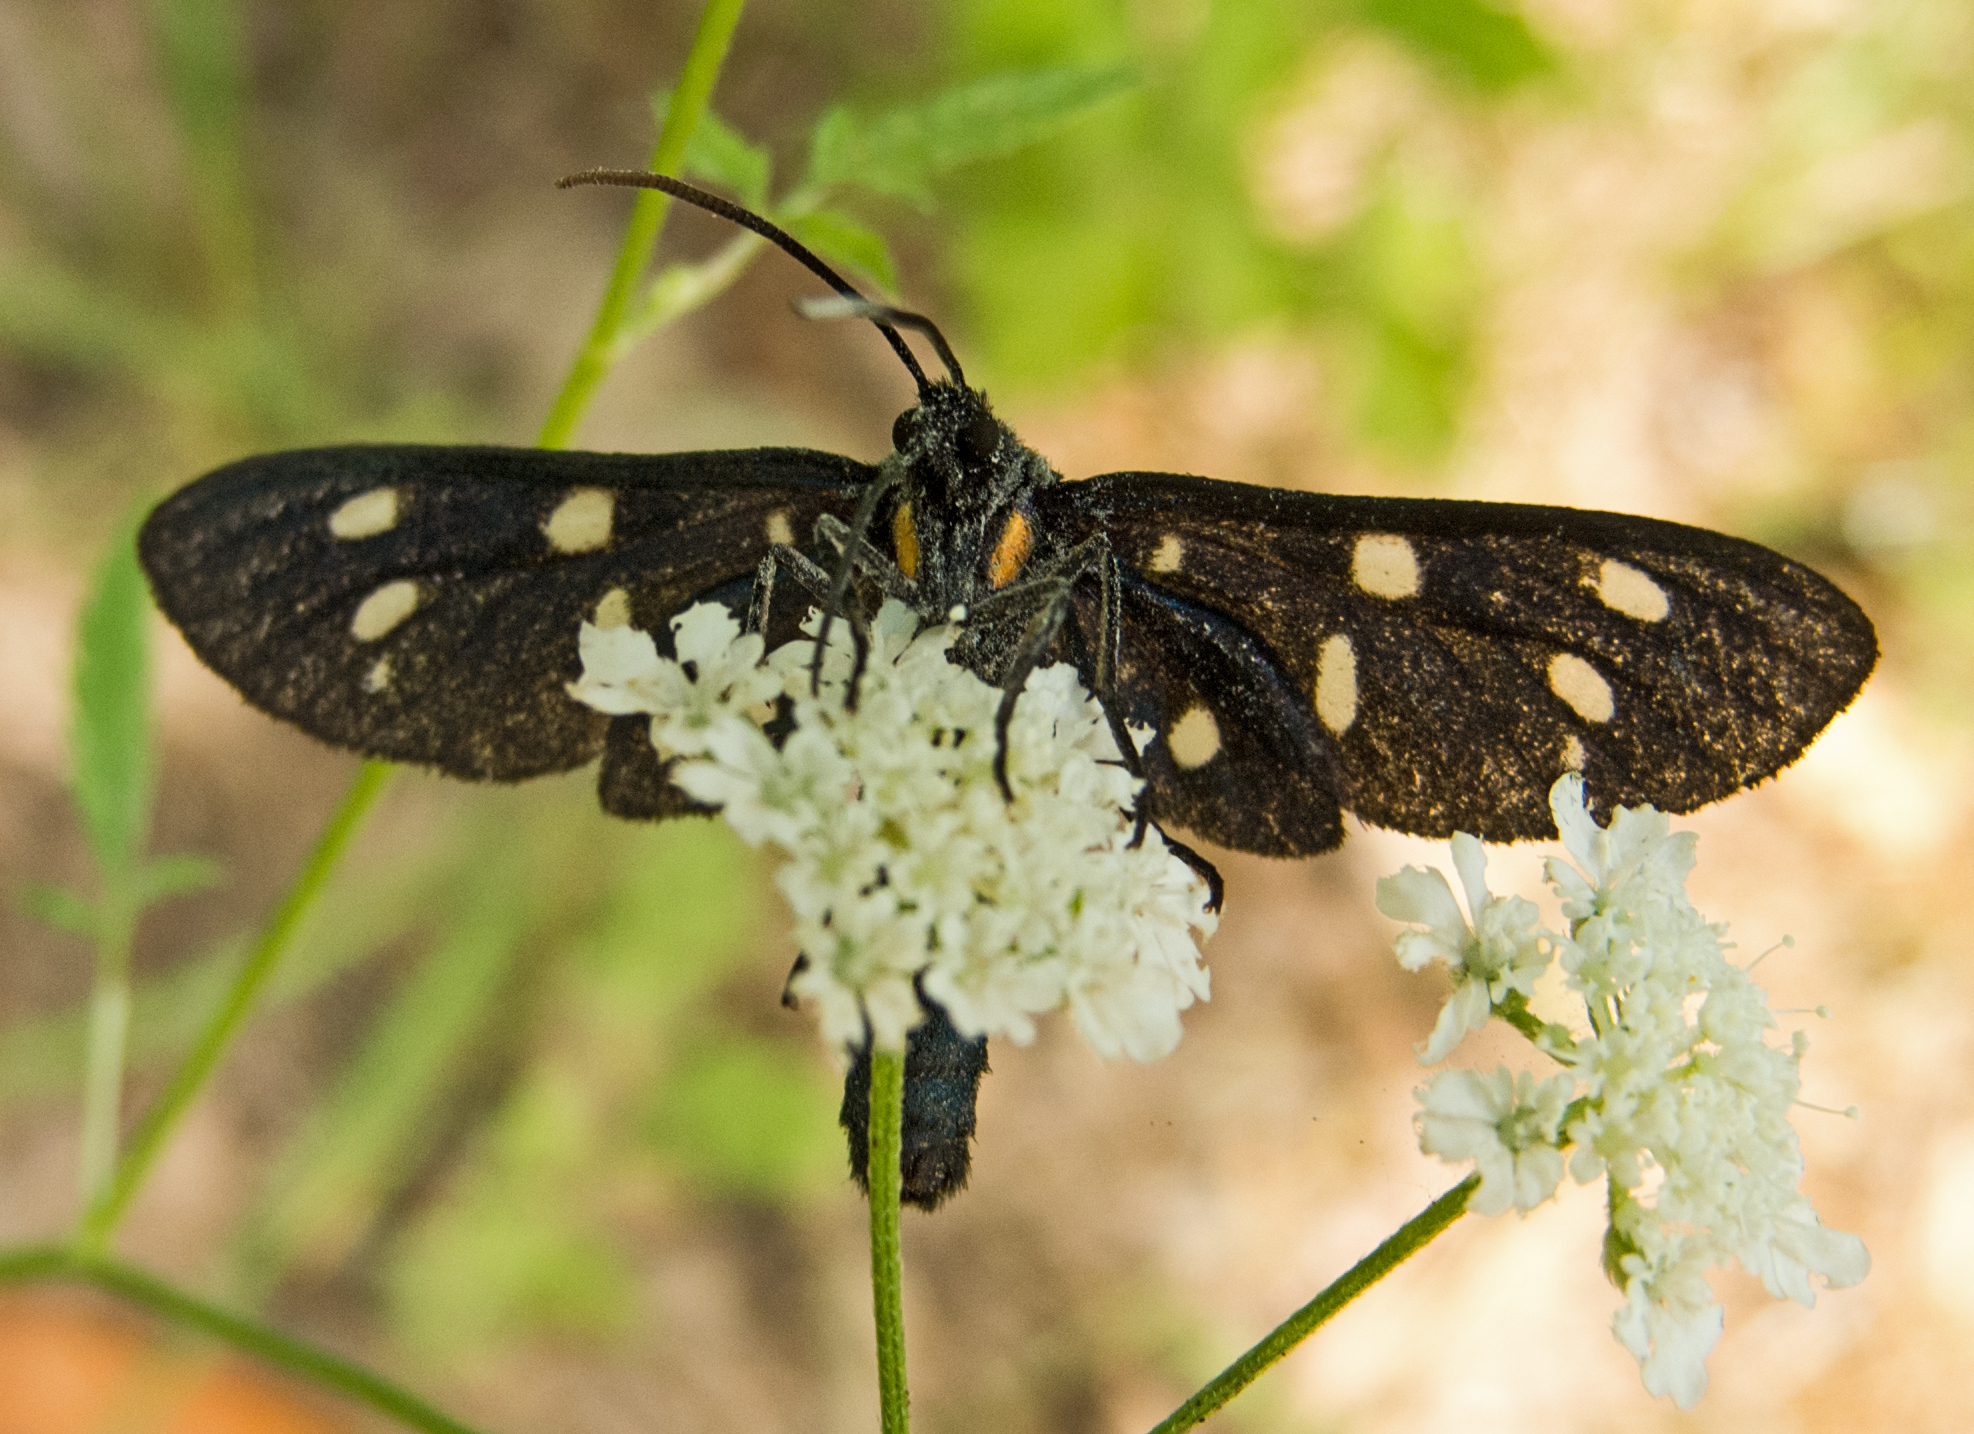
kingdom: Animalia
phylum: Arthropoda
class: Insecta
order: Lepidoptera
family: Erebidae
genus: Amata
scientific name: Amata phegea
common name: Nine-spotted
